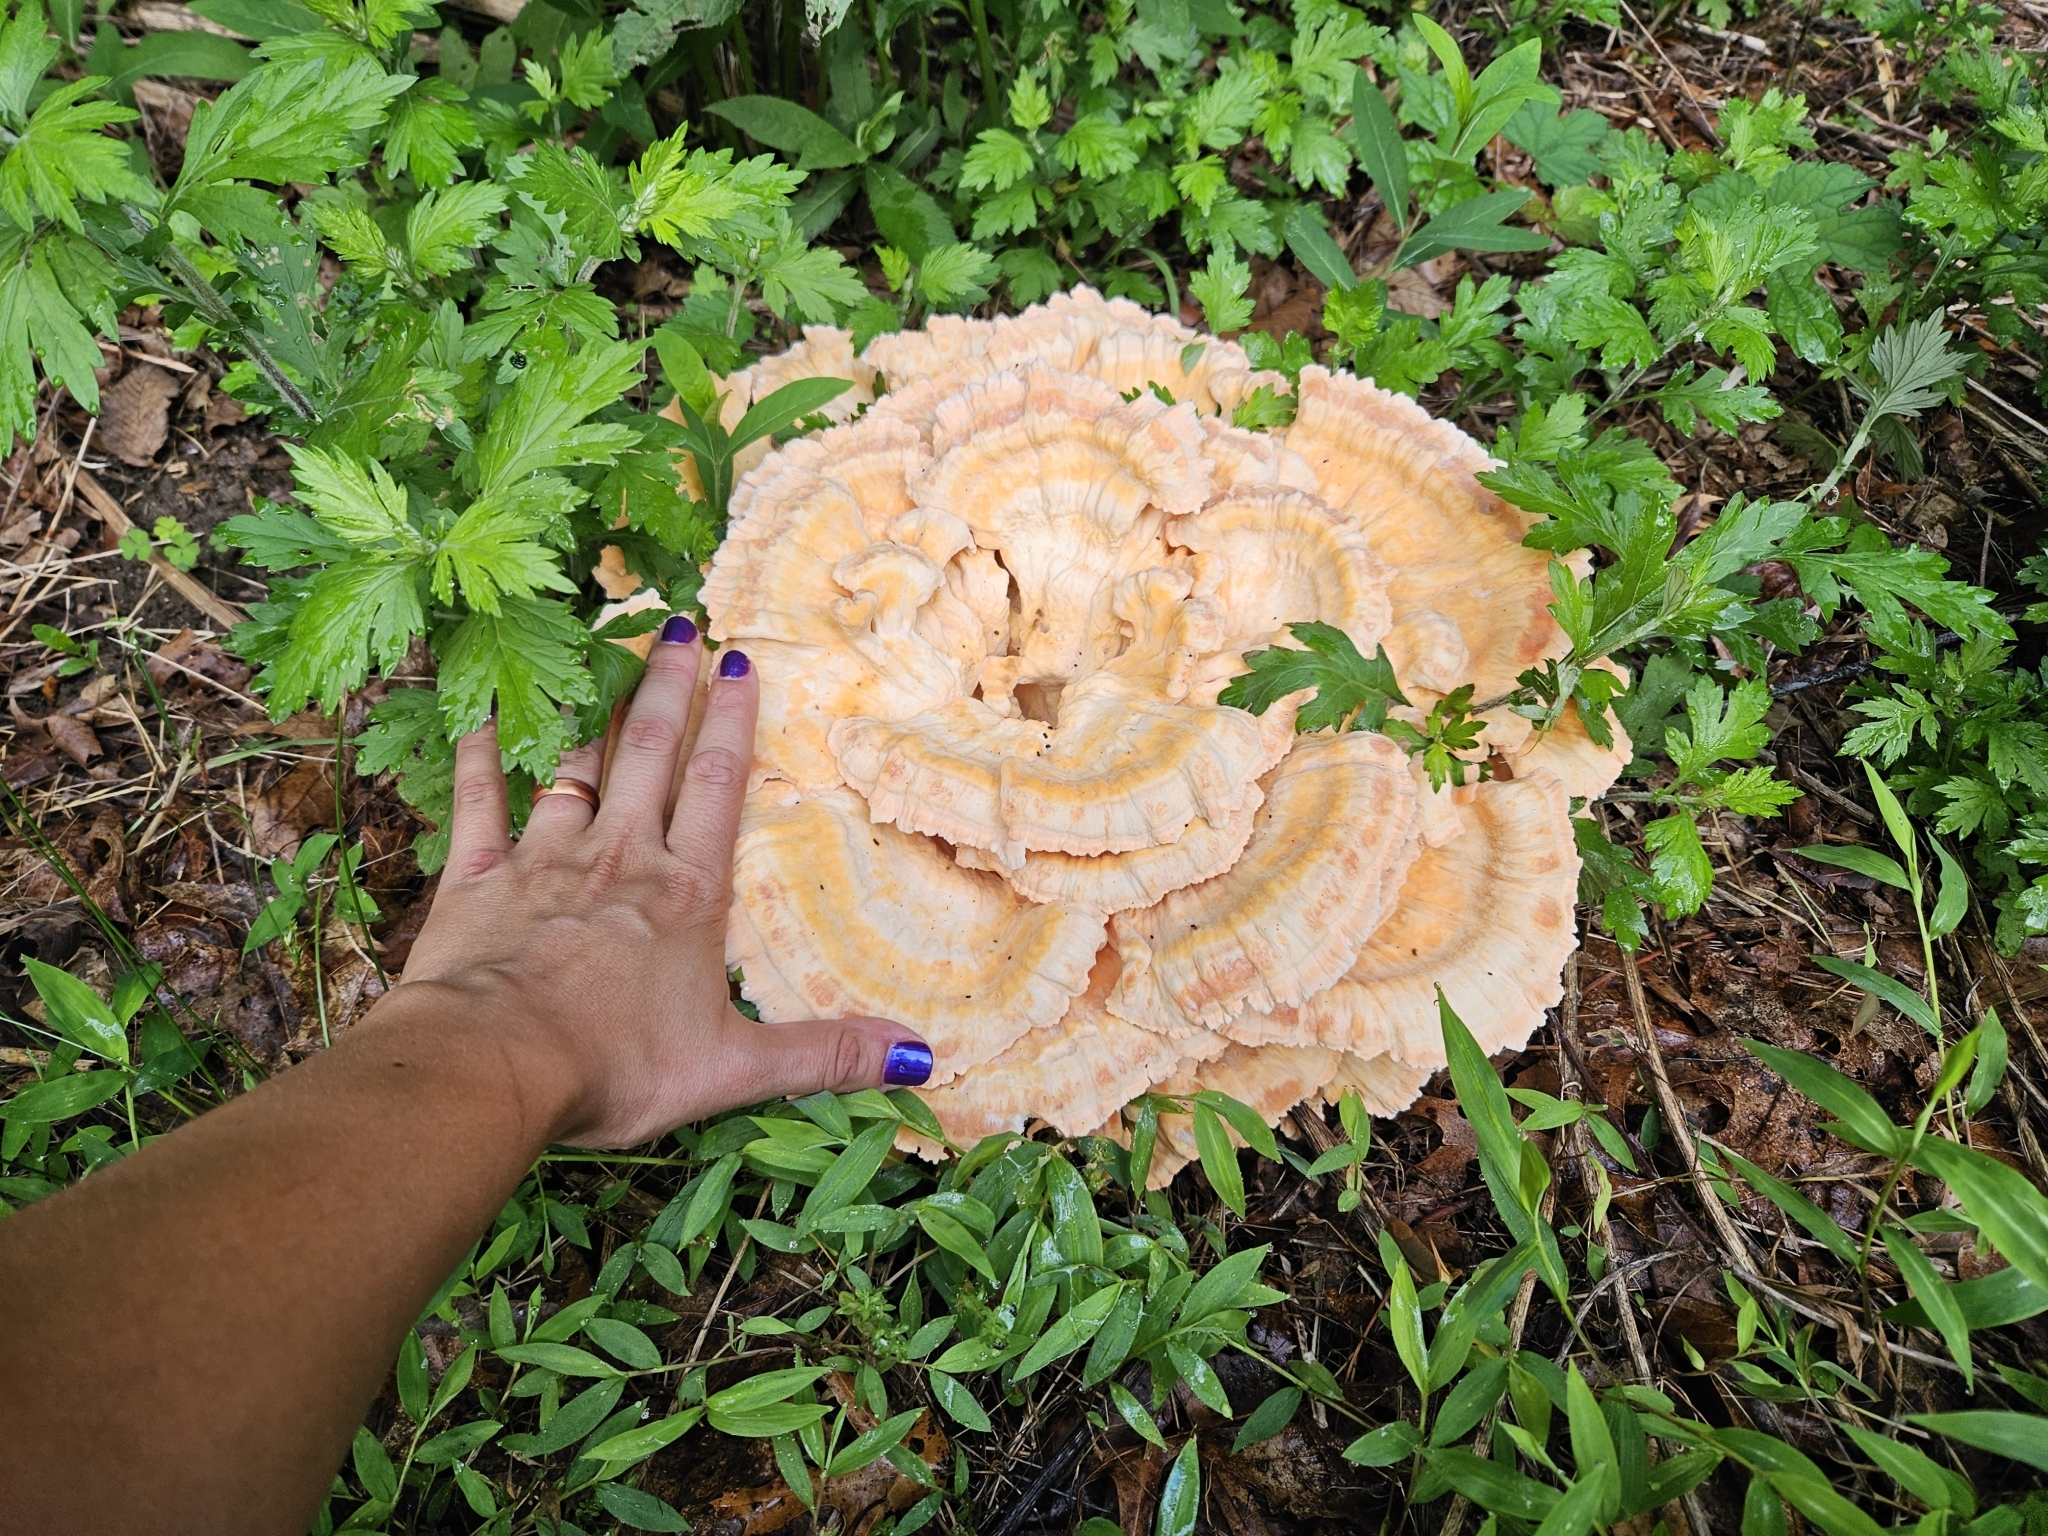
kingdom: Fungi
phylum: Basidiomycota
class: Agaricomycetes
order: Polyporales
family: Laetiporaceae
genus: Laetiporus
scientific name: Laetiporus sulphureus
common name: Chicken of the woods
